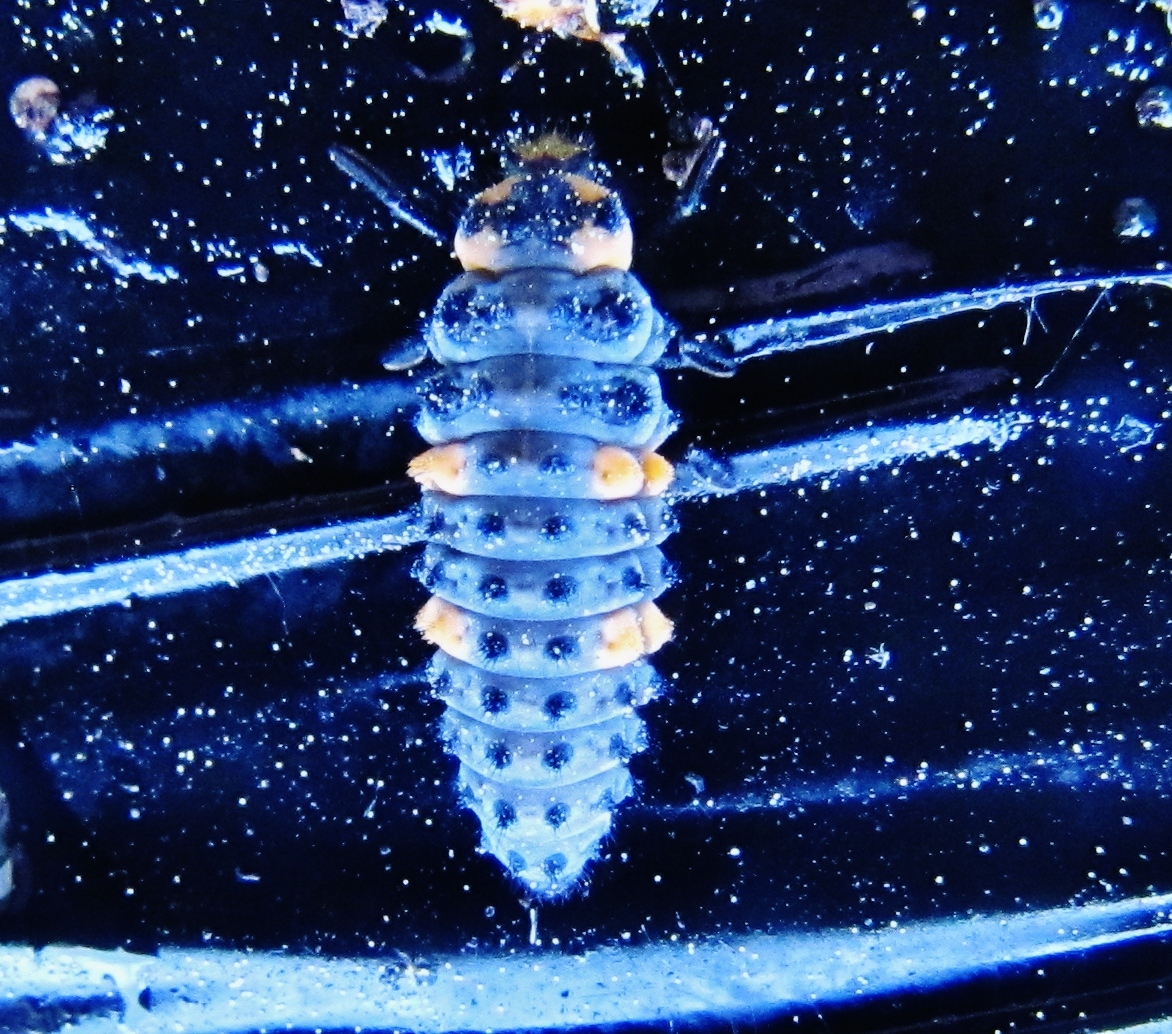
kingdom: Animalia
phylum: Arthropoda
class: Insecta
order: Coleoptera
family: Coccinellidae
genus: Coccinella
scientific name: Coccinella septempunctata
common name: Sevenspotted lady beetle
